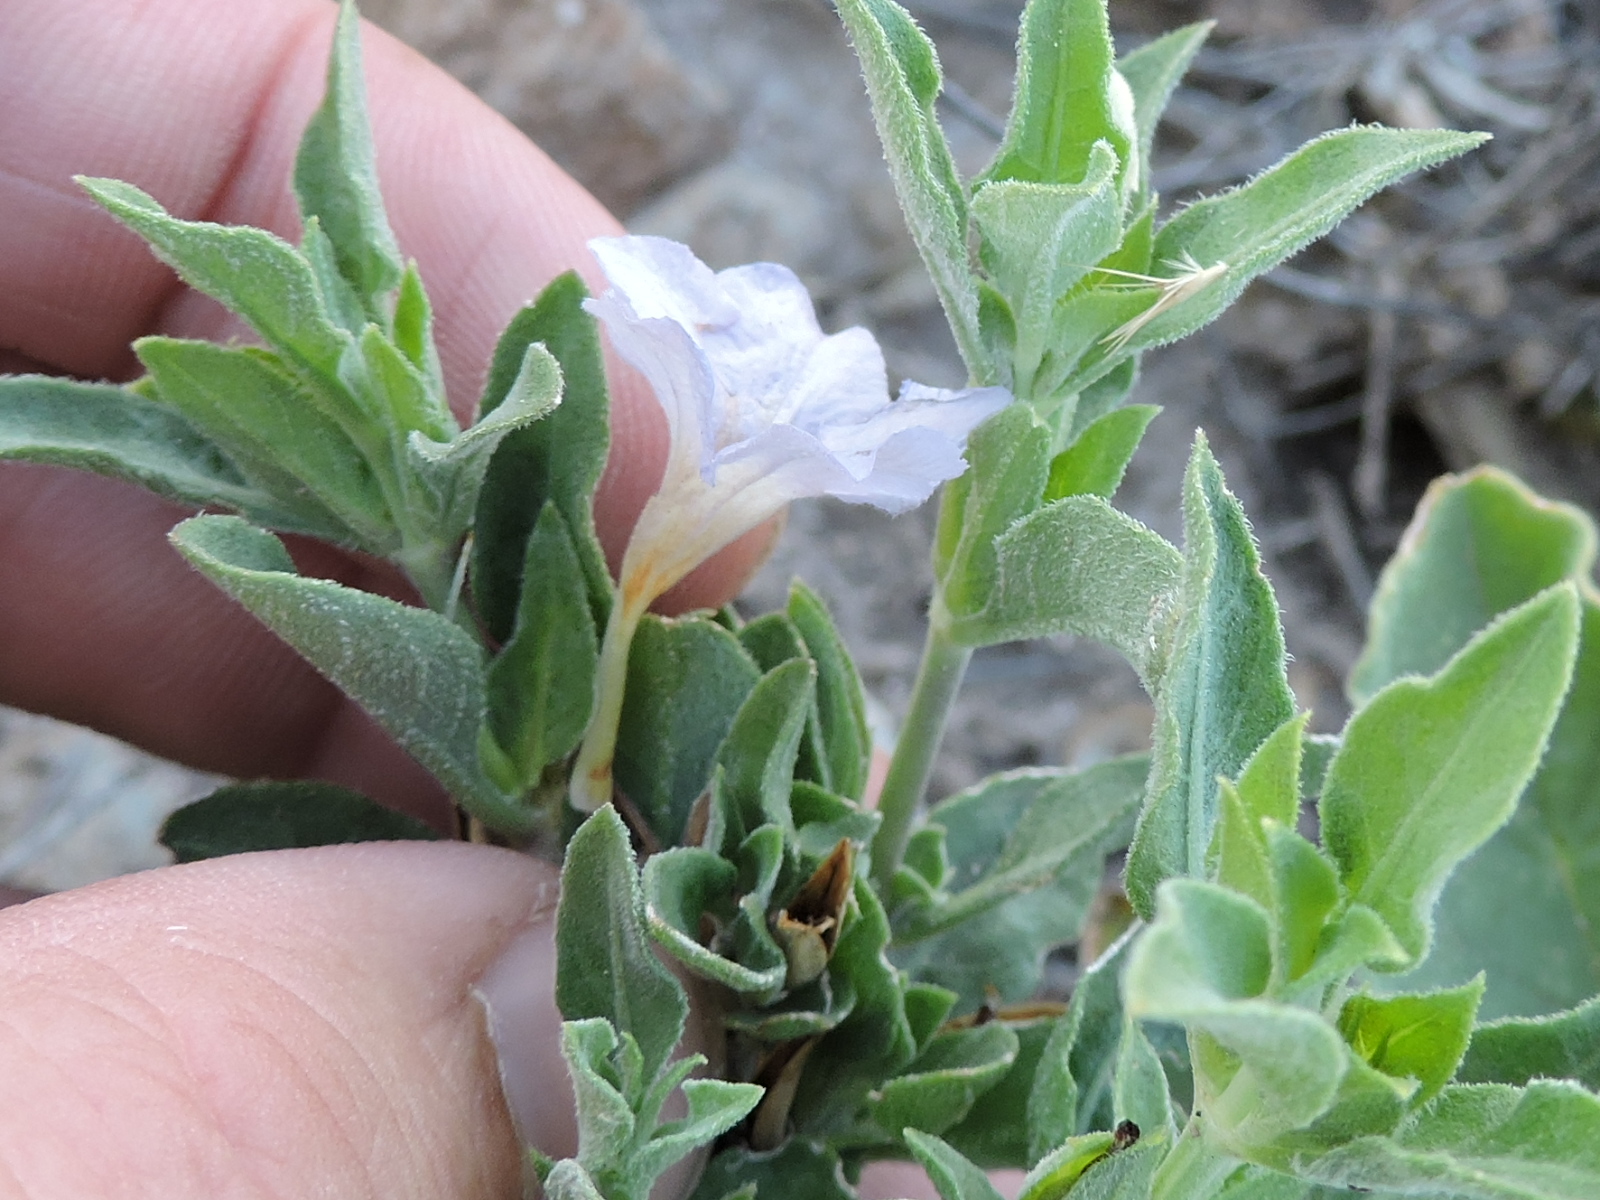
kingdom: Plantae
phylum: Tracheophyta
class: Magnoliopsida
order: Lamiales
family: Acanthaceae
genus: Ruellia
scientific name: Ruellia parryi
